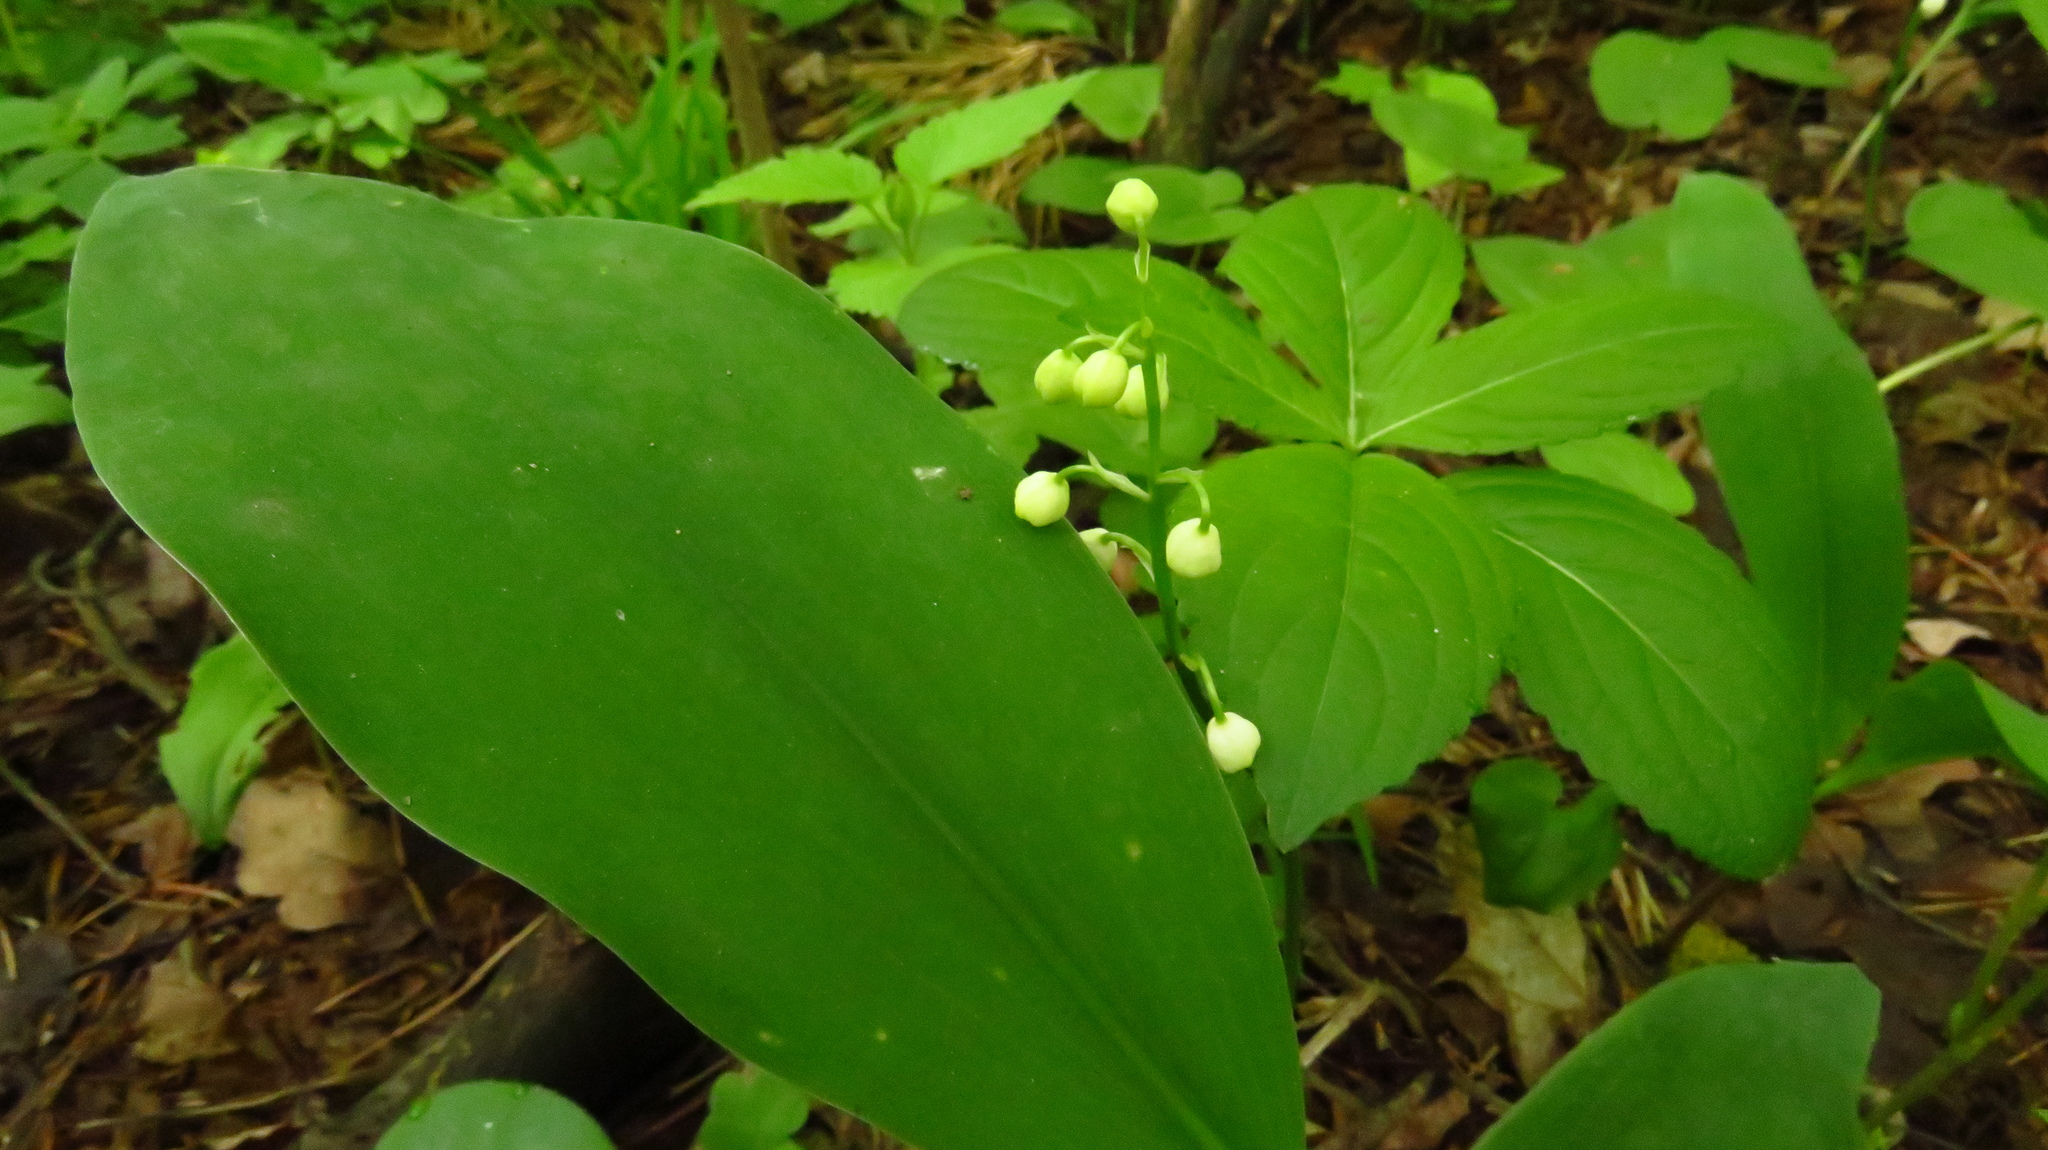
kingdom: Plantae
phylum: Tracheophyta
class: Liliopsida
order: Asparagales
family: Asparagaceae
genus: Convallaria
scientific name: Convallaria majalis
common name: Lily-of-the-valley
